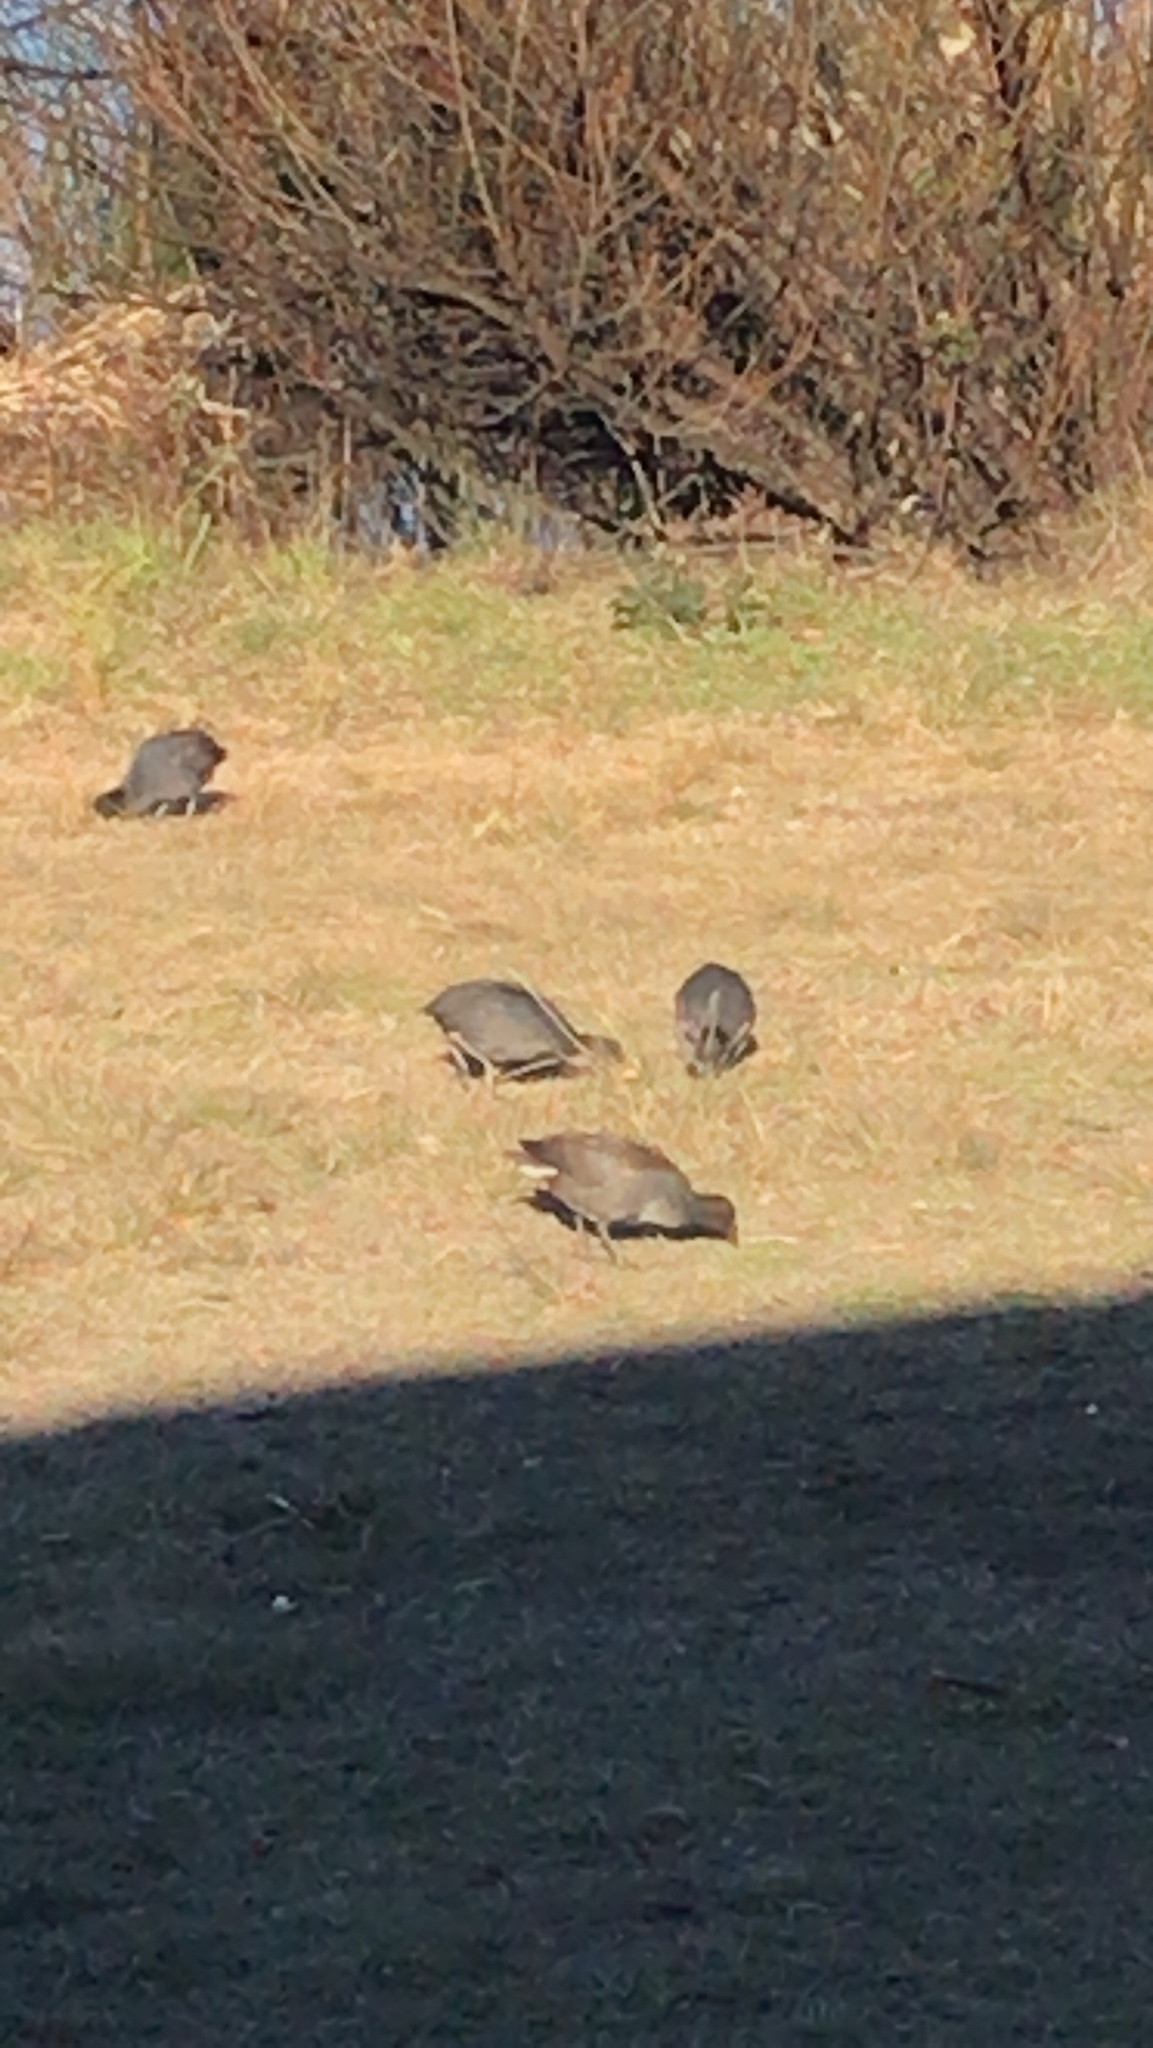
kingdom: Animalia
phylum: Chordata
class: Aves
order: Gruiformes
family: Rallidae
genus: Gallinula
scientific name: Gallinula tenebrosa
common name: Dusky moorhen
